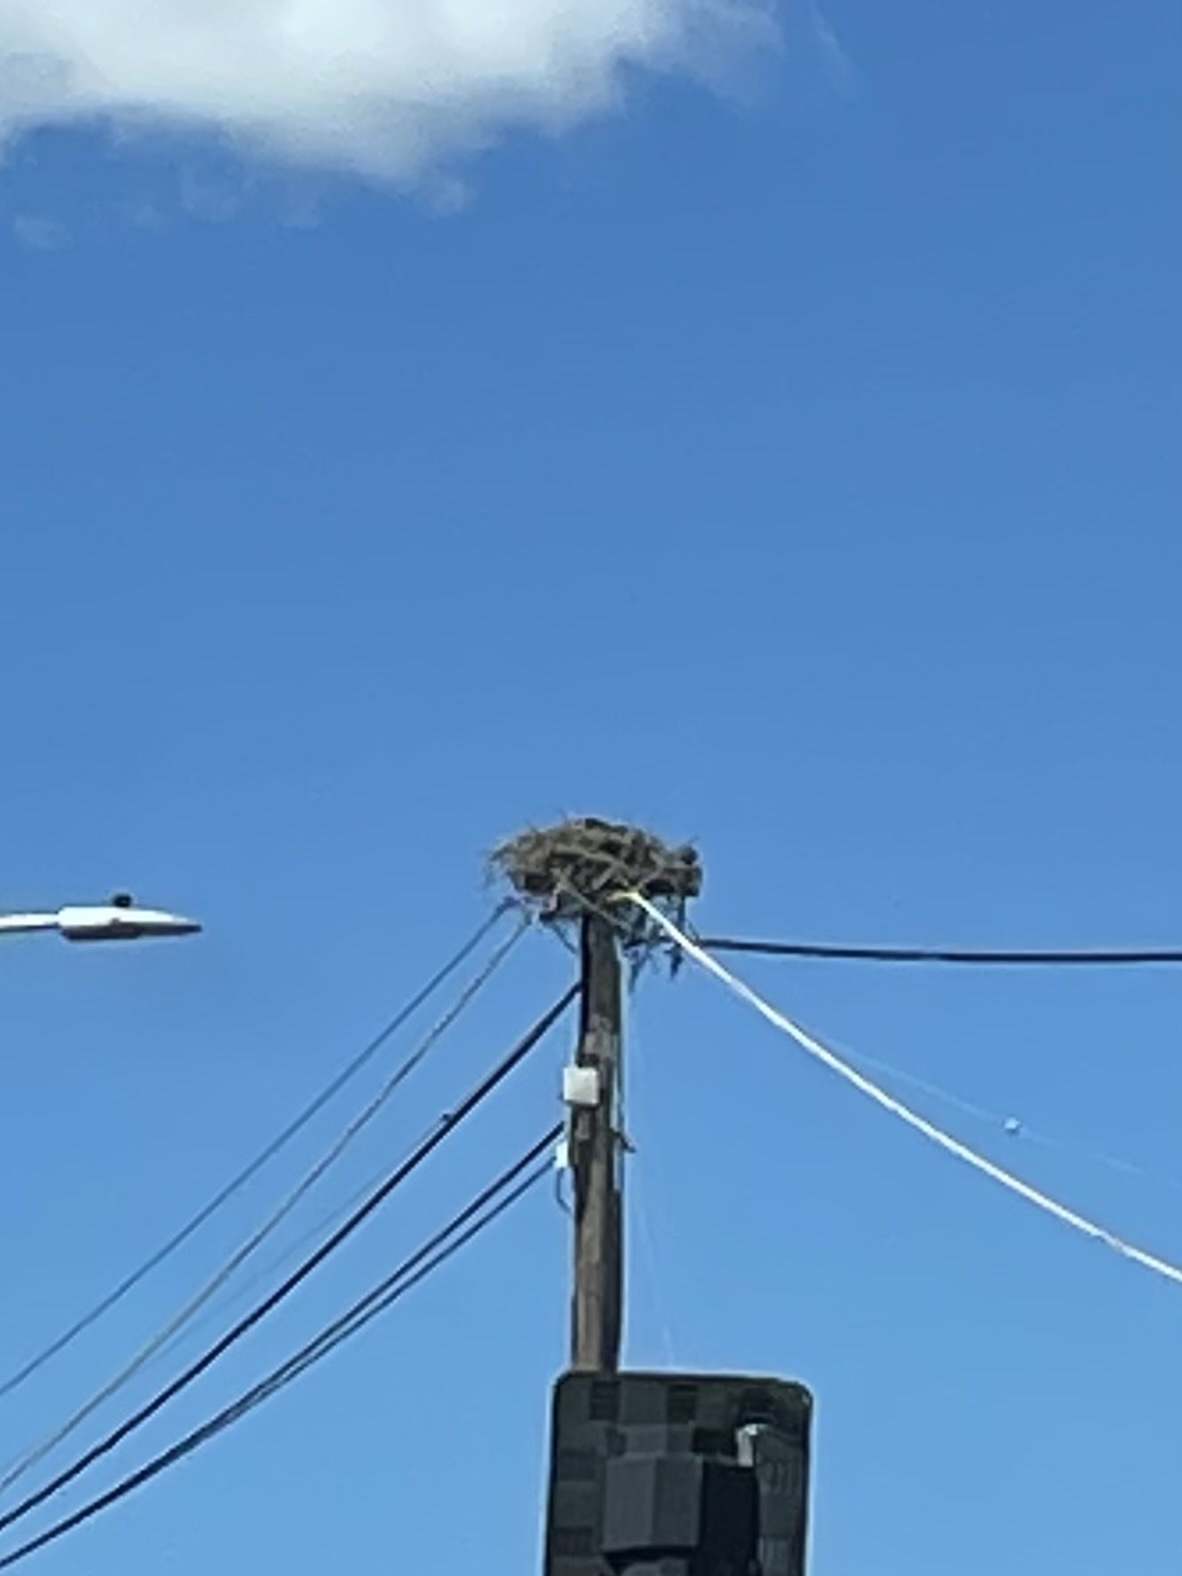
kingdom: Animalia
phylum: Chordata
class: Aves
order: Accipitriformes
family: Pandionidae
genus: Pandion
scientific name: Pandion haliaetus
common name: Osprey
